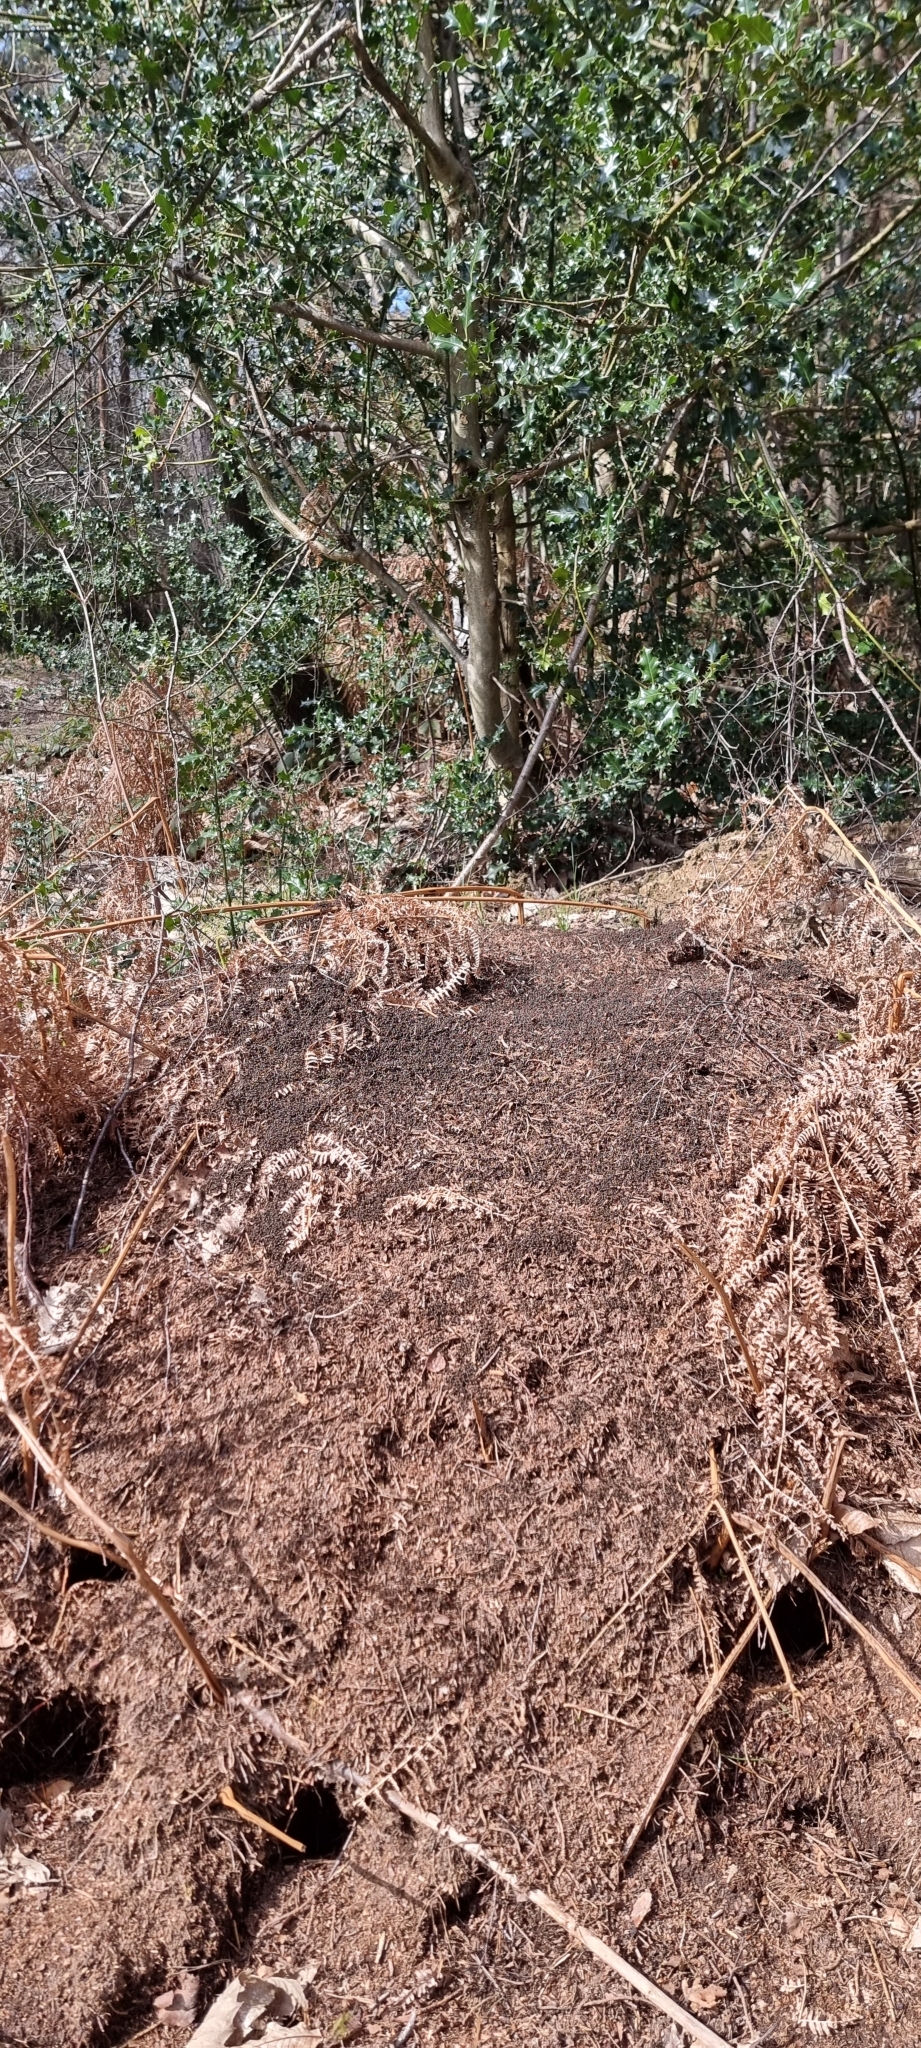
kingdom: Animalia
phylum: Arthropoda
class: Insecta
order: Hymenoptera
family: Formicidae
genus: Formica
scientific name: Formica
